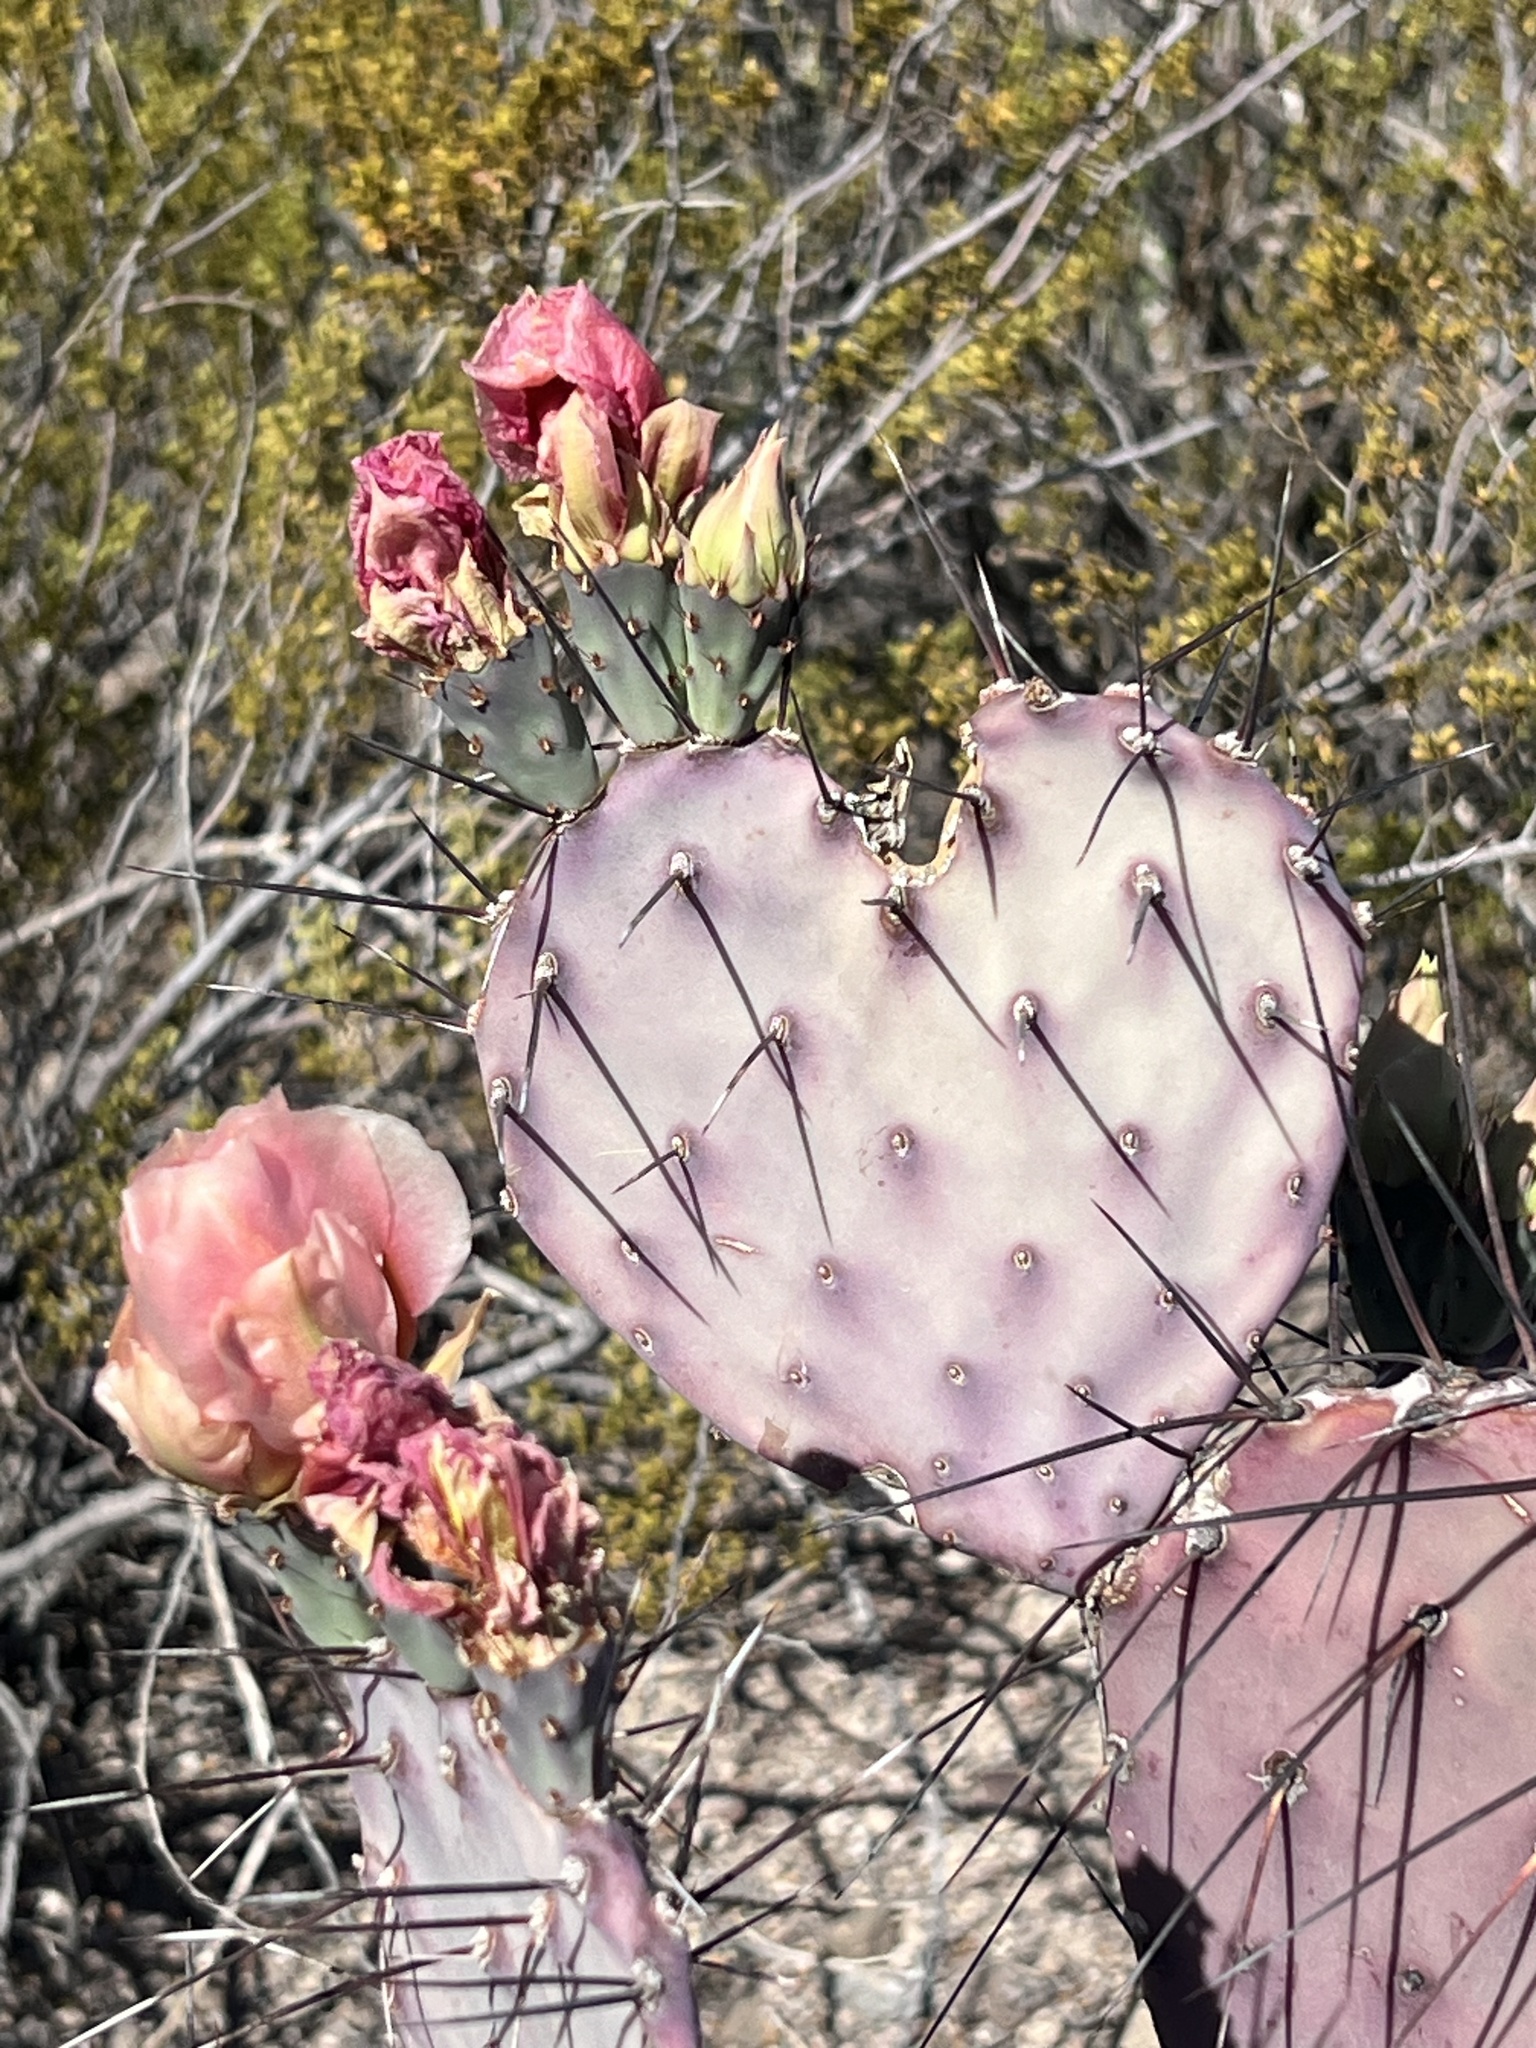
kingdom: Plantae
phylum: Tracheophyta
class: Magnoliopsida
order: Caryophyllales
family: Cactaceae
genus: Opuntia
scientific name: Opuntia phaeacantha
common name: New mexico prickly-pear
